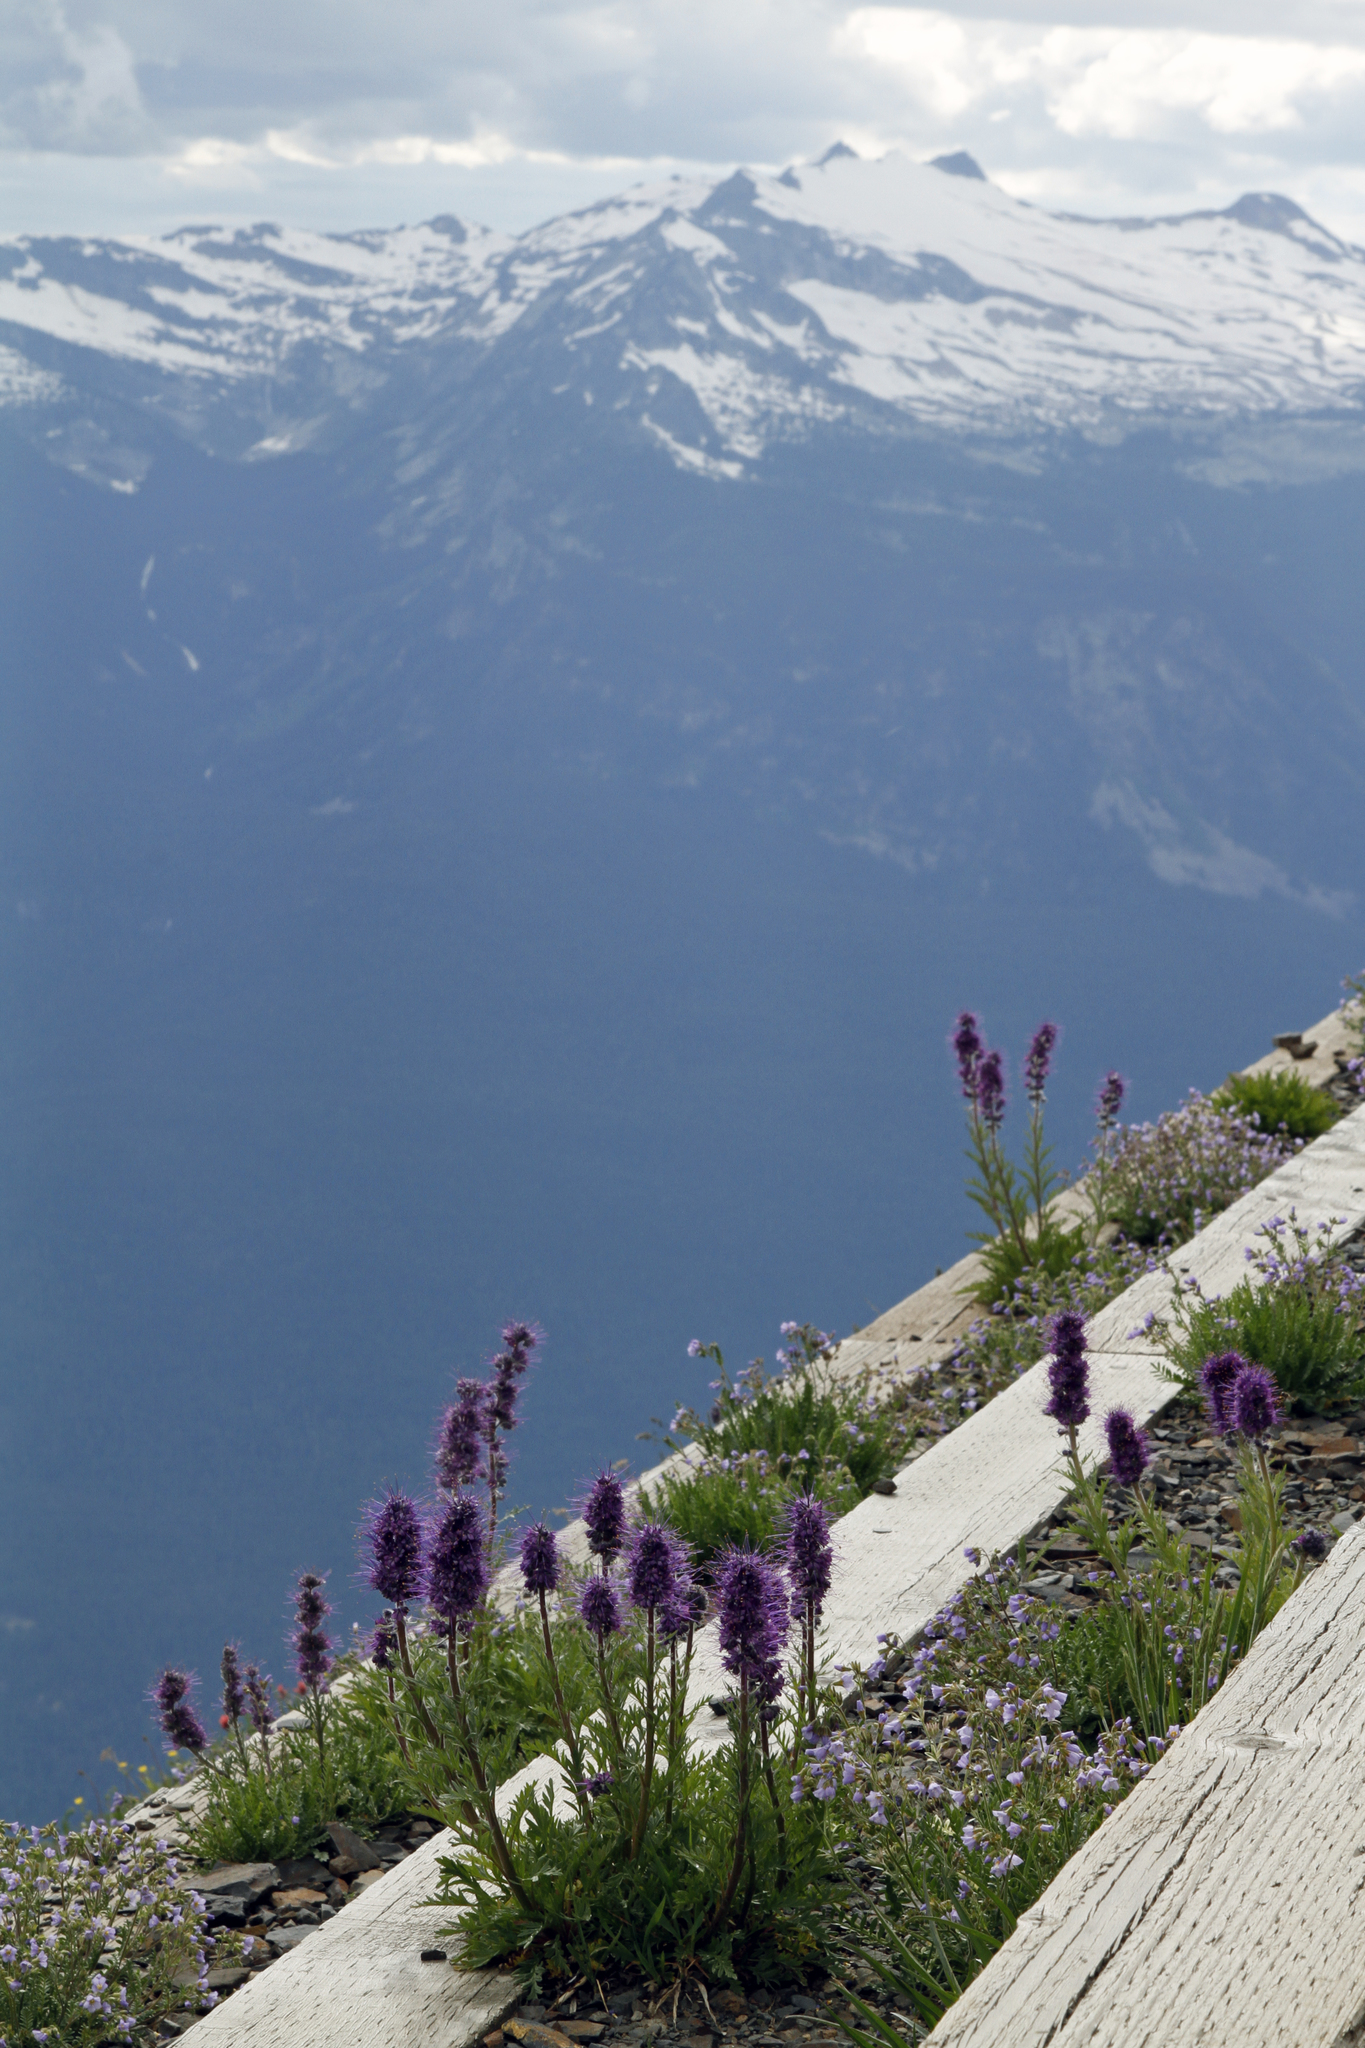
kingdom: Plantae
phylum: Tracheophyta
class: Magnoliopsida
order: Boraginales
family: Hydrophyllaceae
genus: Phacelia
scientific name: Phacelia sericea
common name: Silky phacelia
